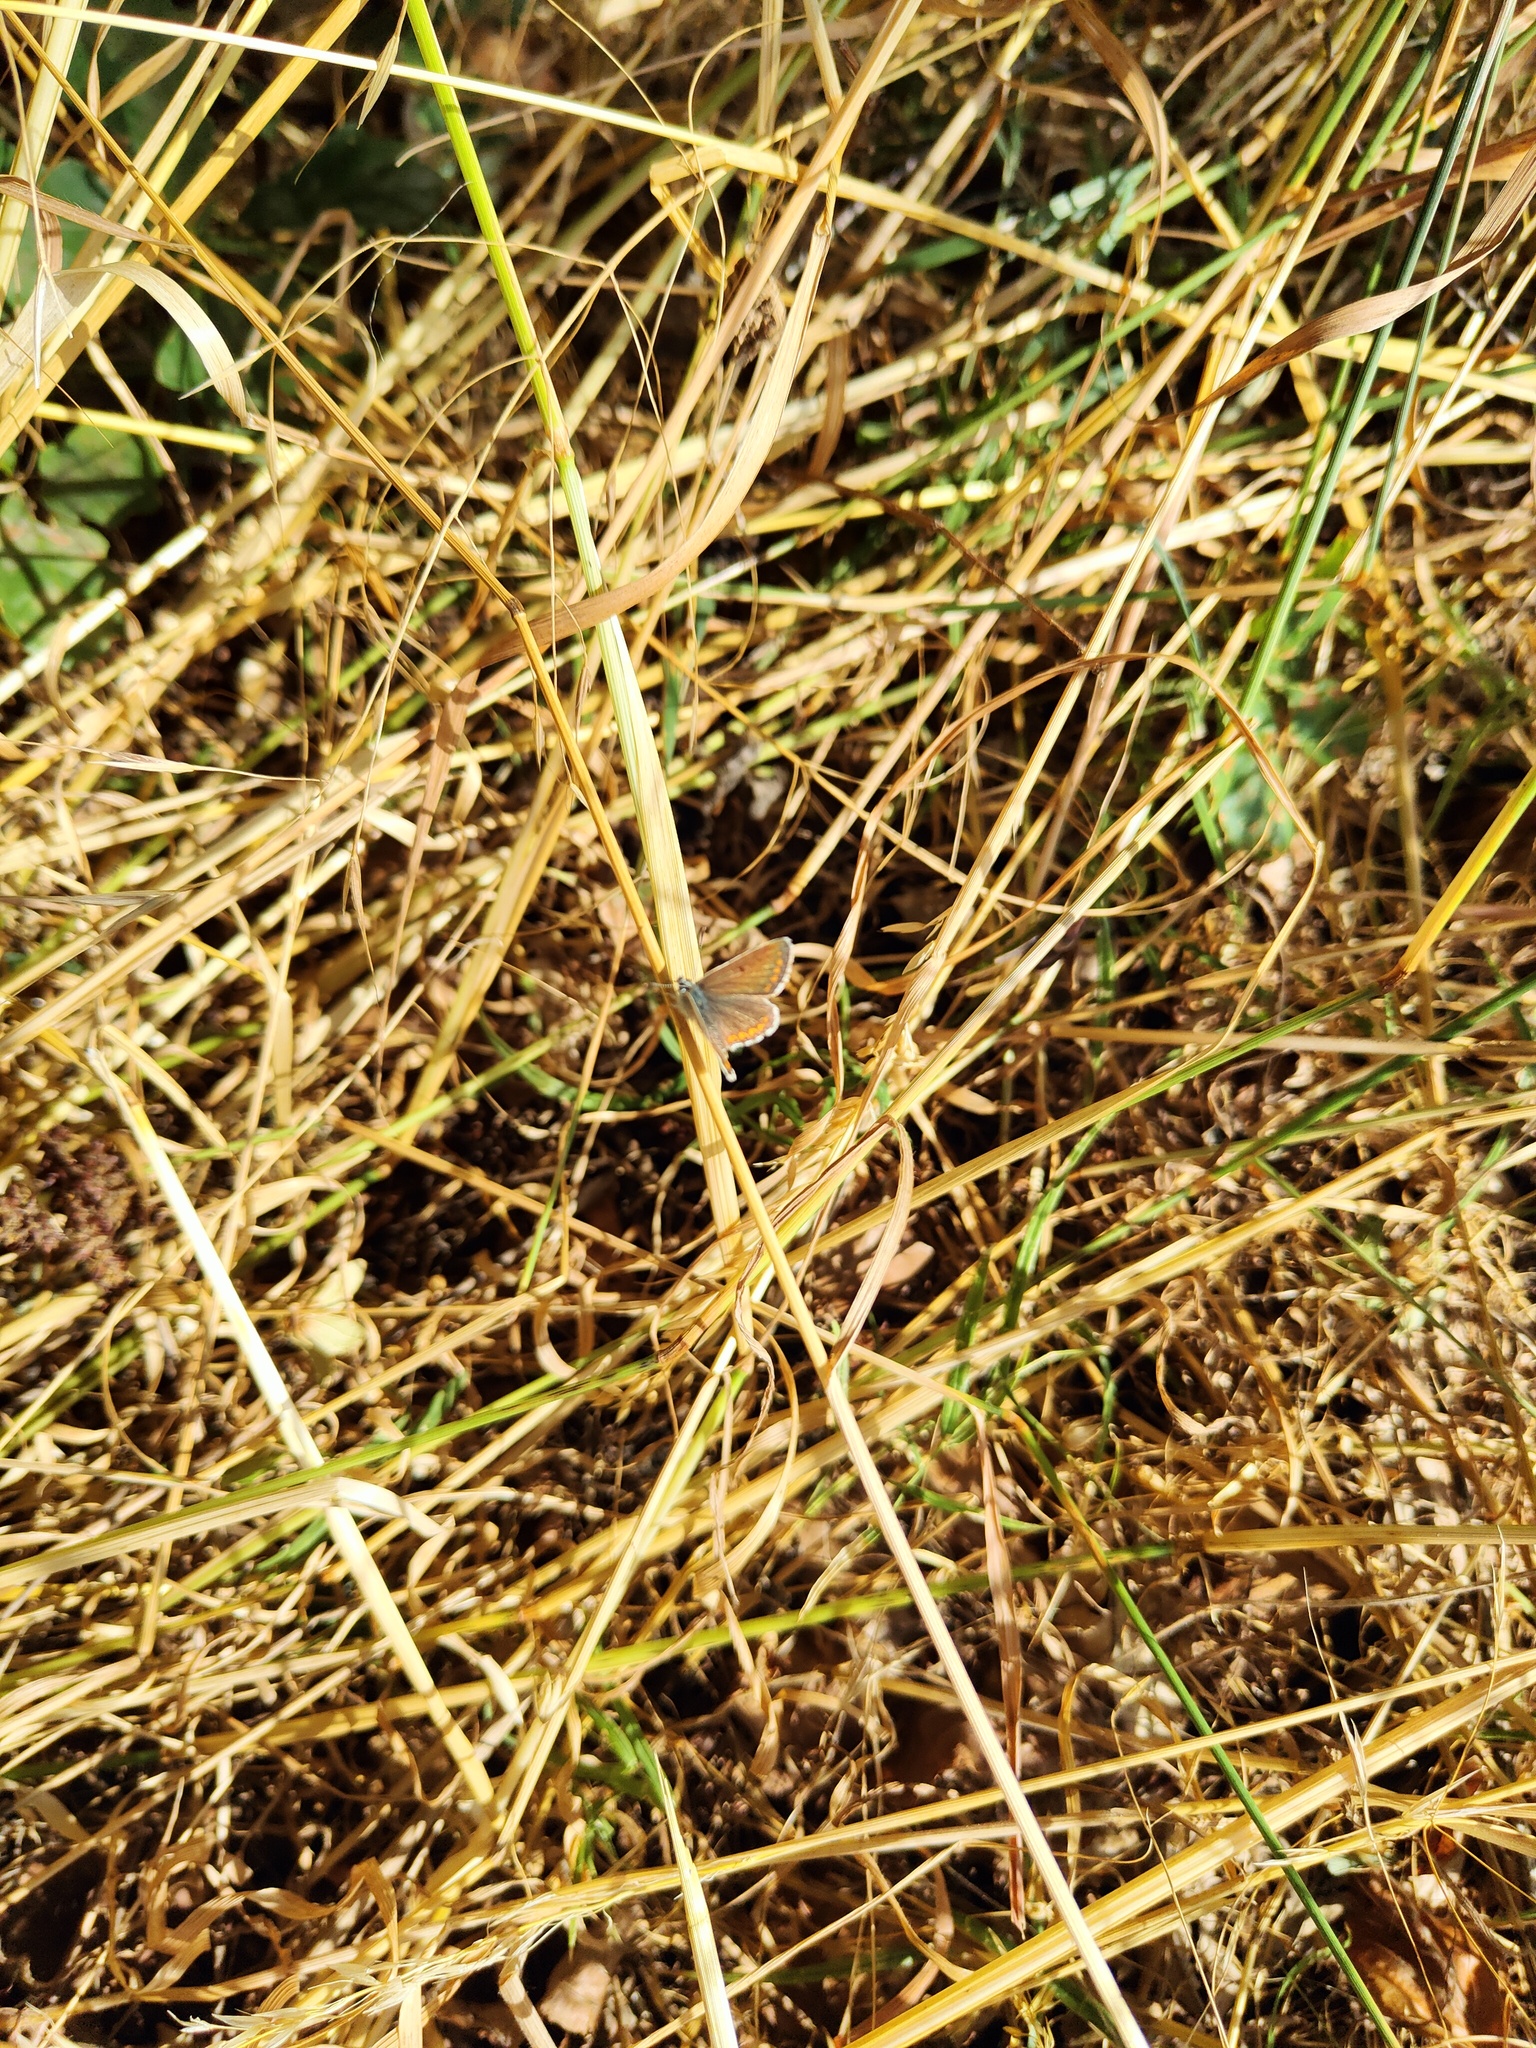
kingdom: Animalia
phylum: Arthropoda
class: Insecta
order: Lepidoptera
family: Lycaenidae
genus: Aricia
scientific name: Aricia agestis
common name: Brown argus
